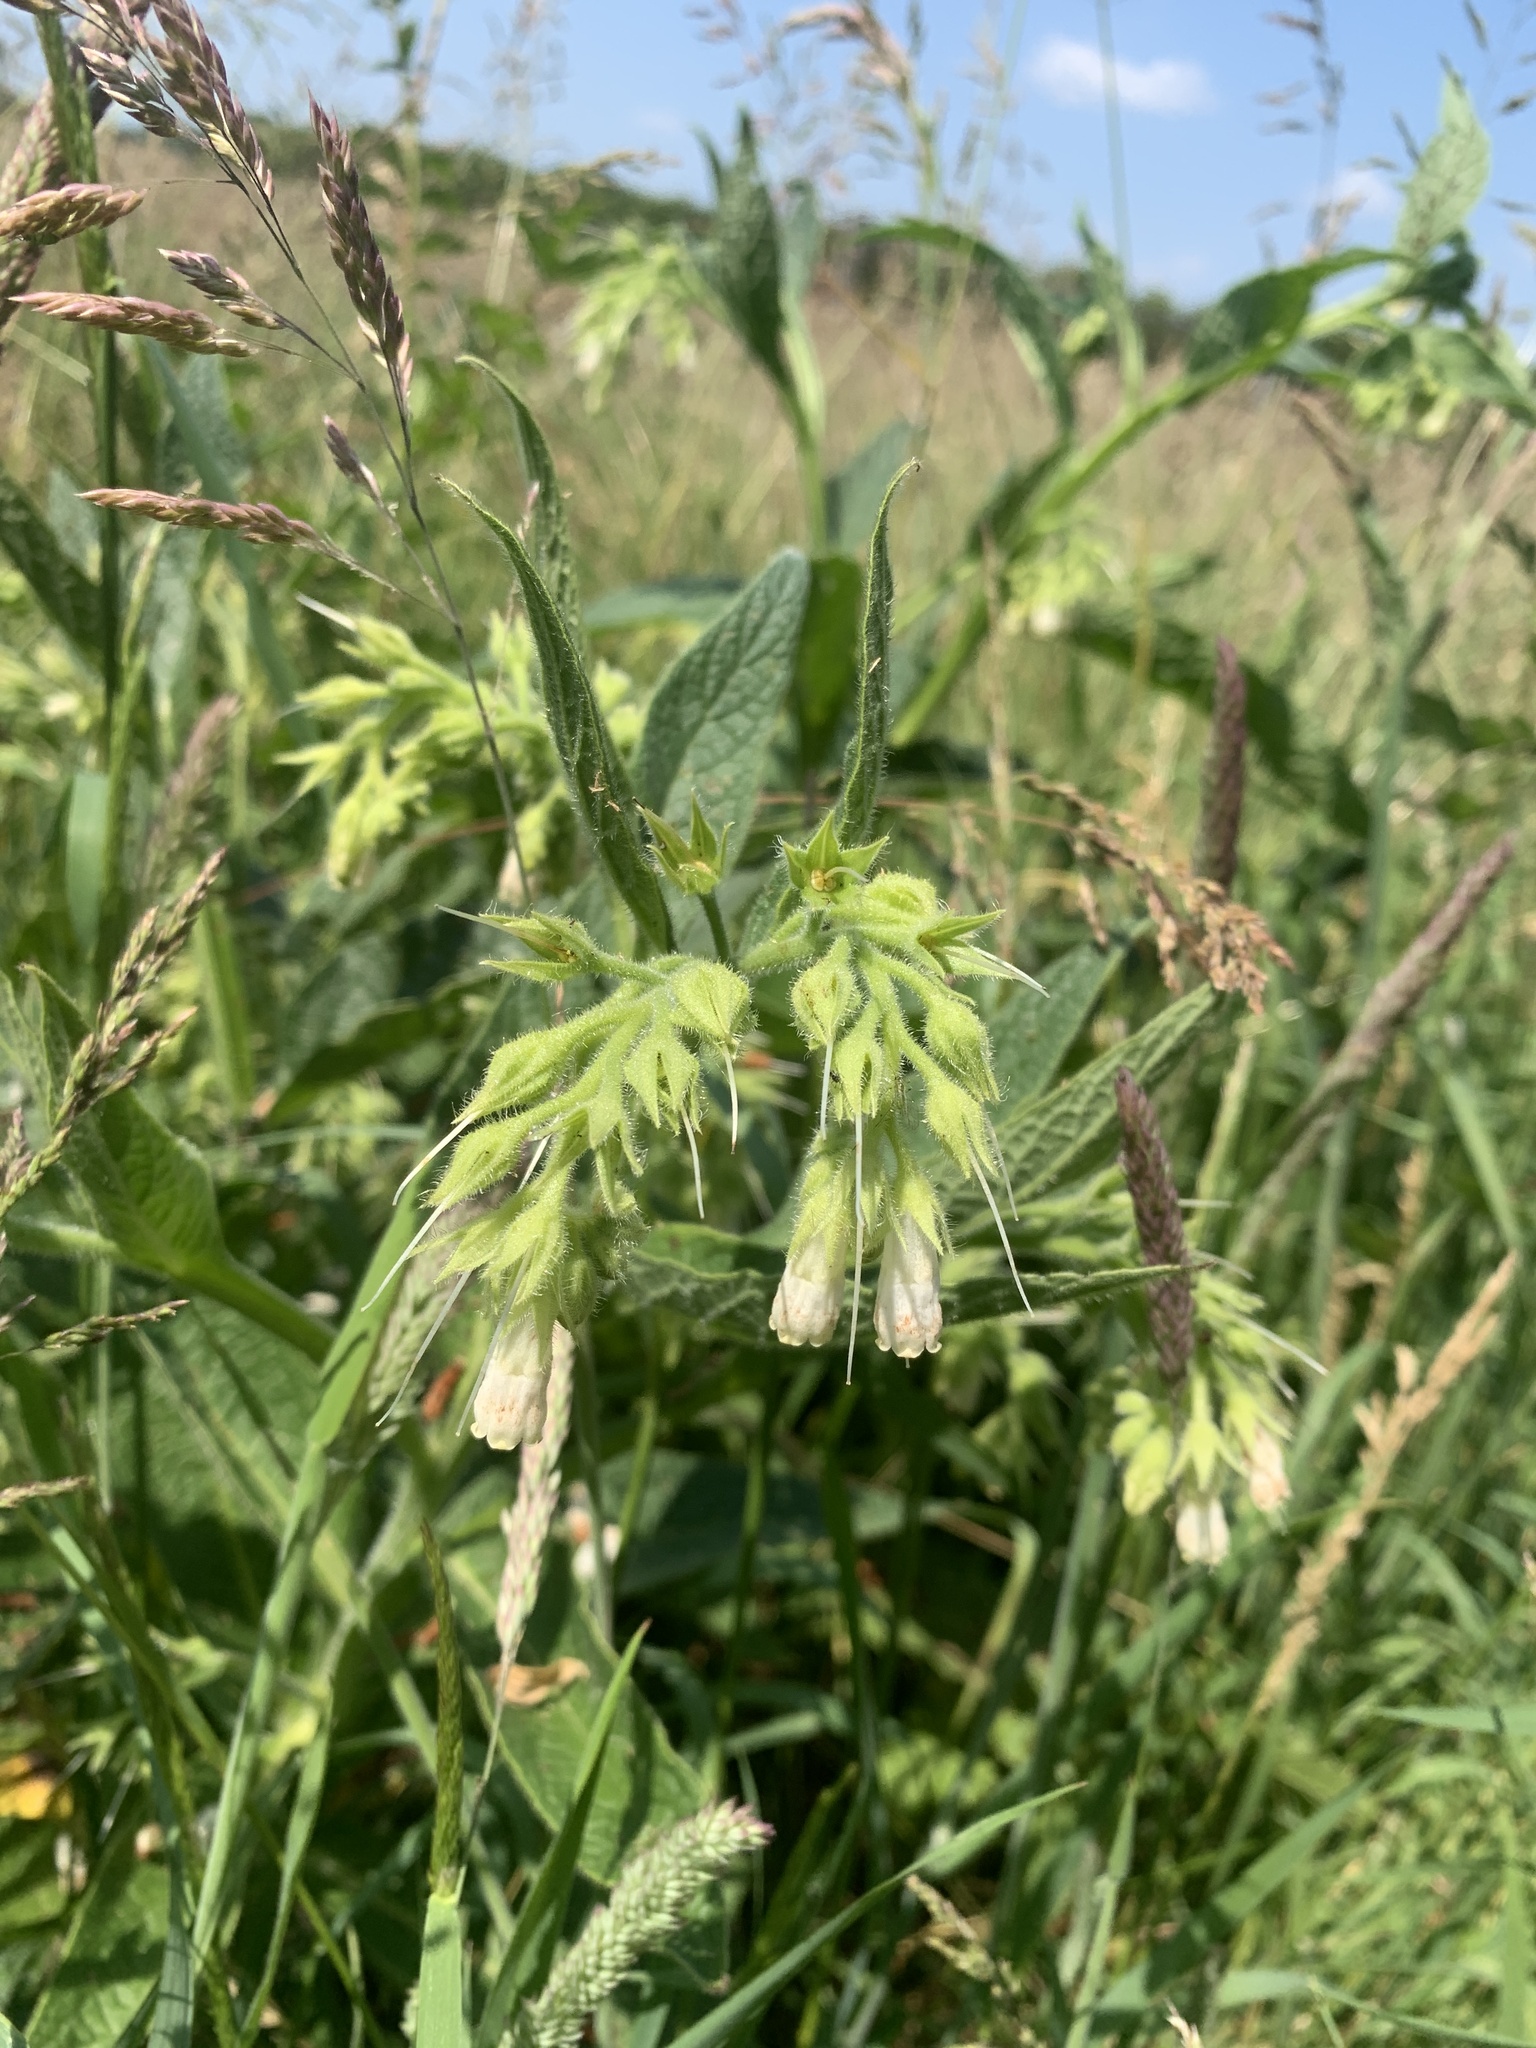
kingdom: Plantae
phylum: Tracheophyta
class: Magnoliopsida
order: Boraginales
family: Boraginaceae
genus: Symphytum
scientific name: Symphytum officinale
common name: Common comfrey
